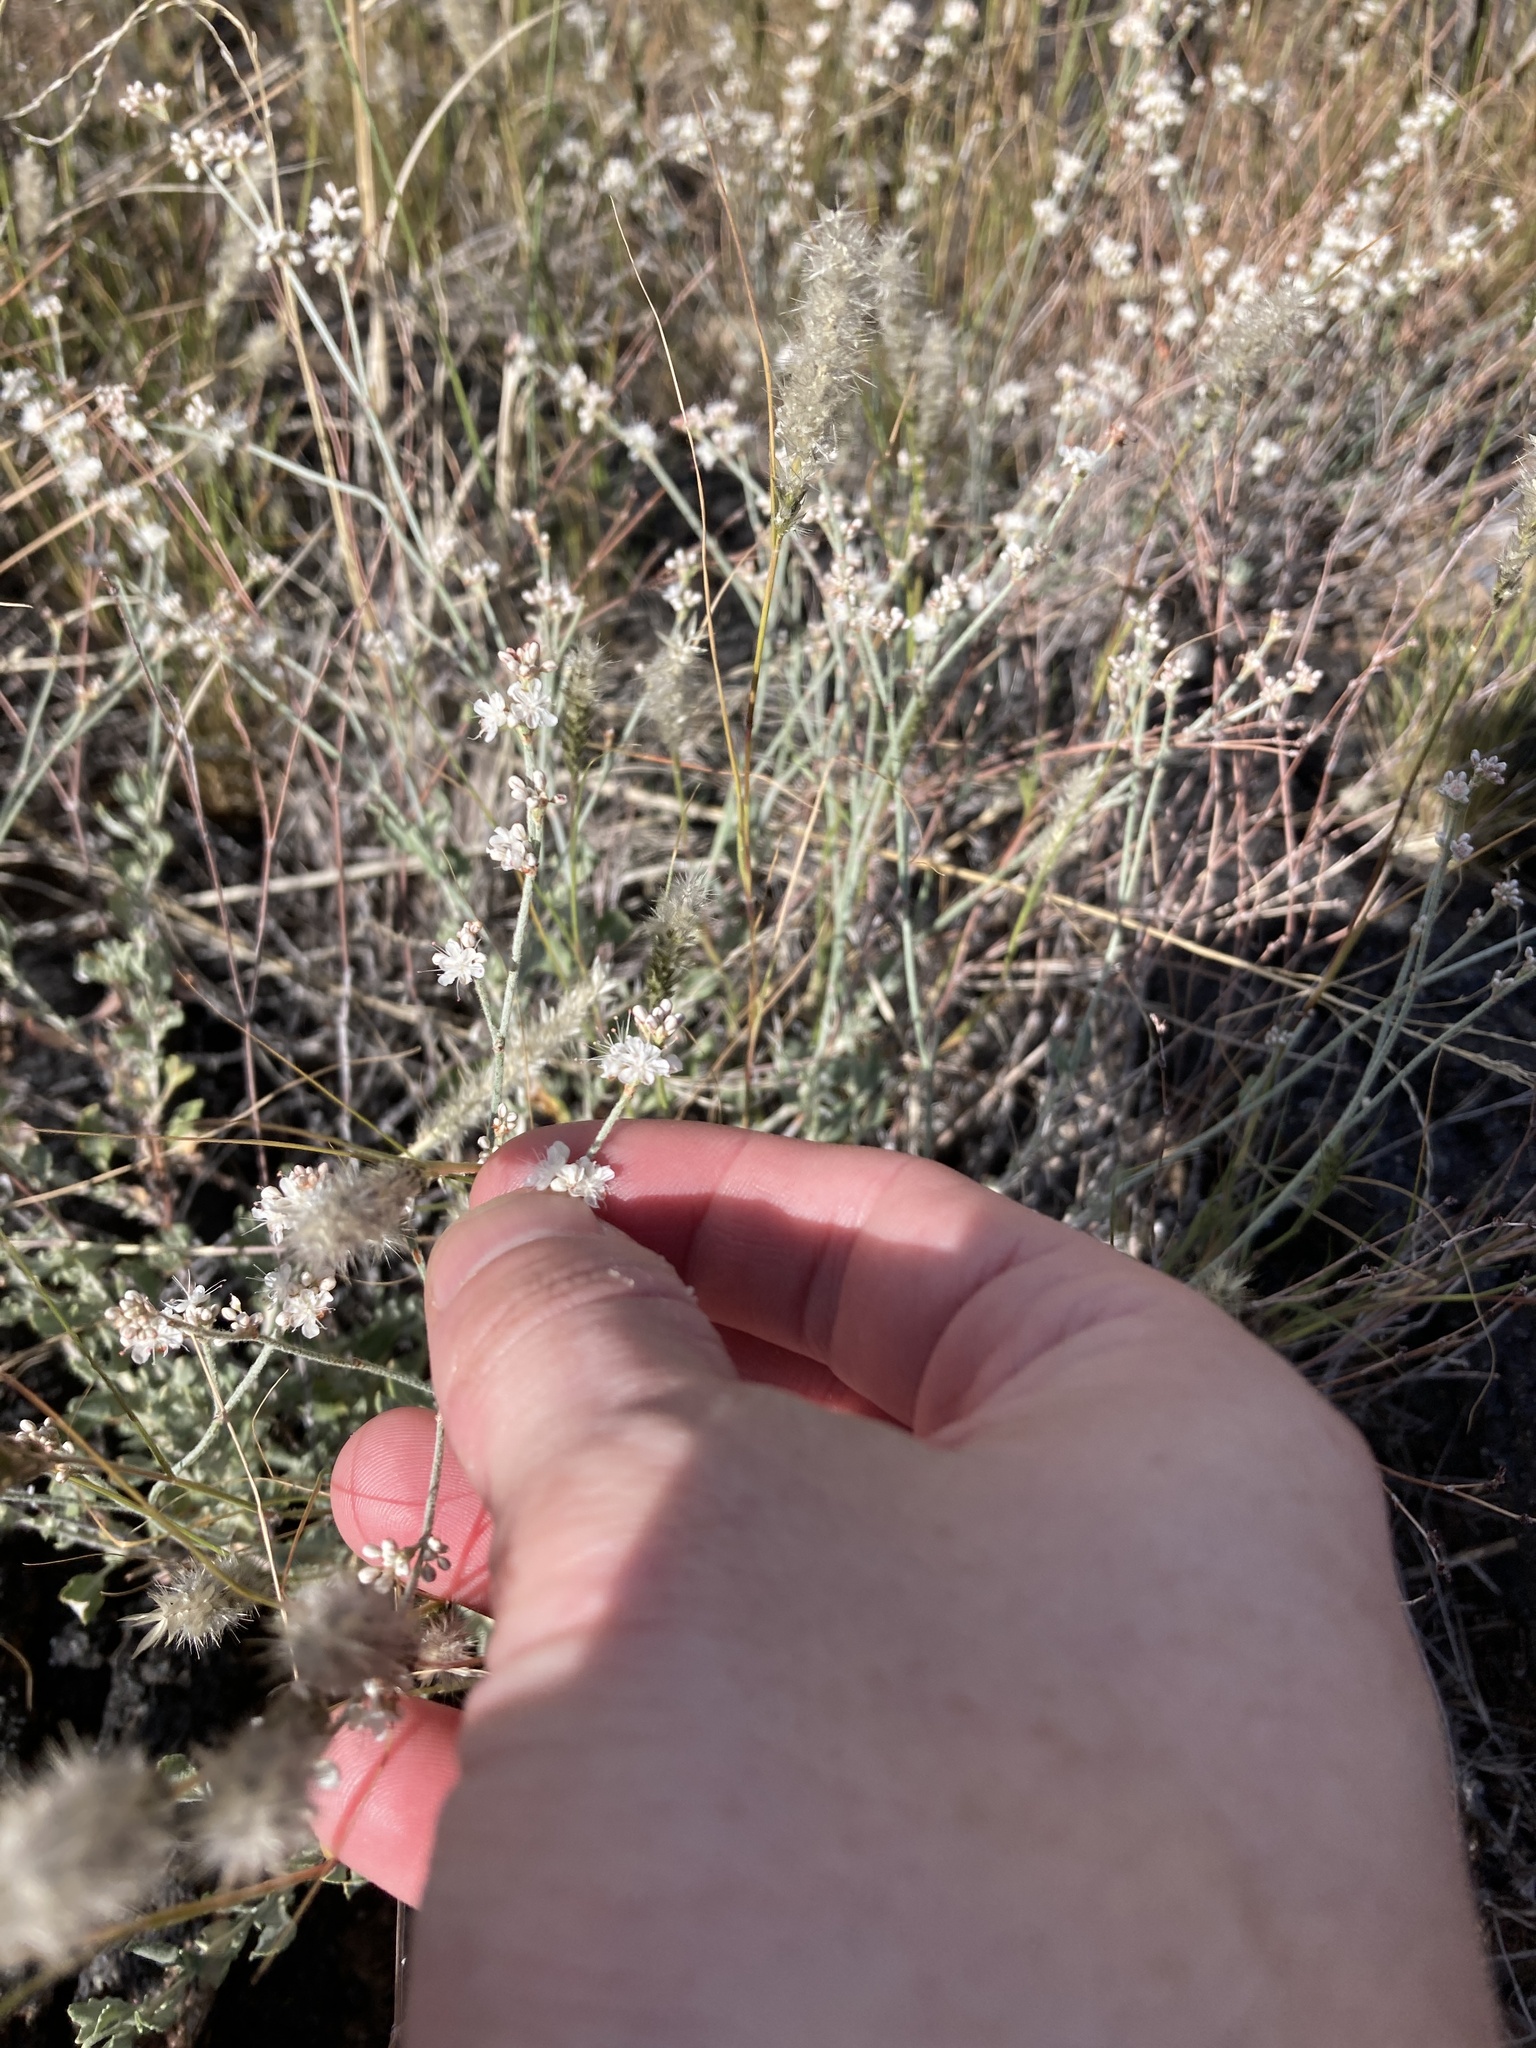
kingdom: Plantae
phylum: Tracheophyta
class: Magnoliopsida
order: Caryophyllales
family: Polygonaceae
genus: Eriogonum
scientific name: Eriogonum wrightii
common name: Bastard-sage
